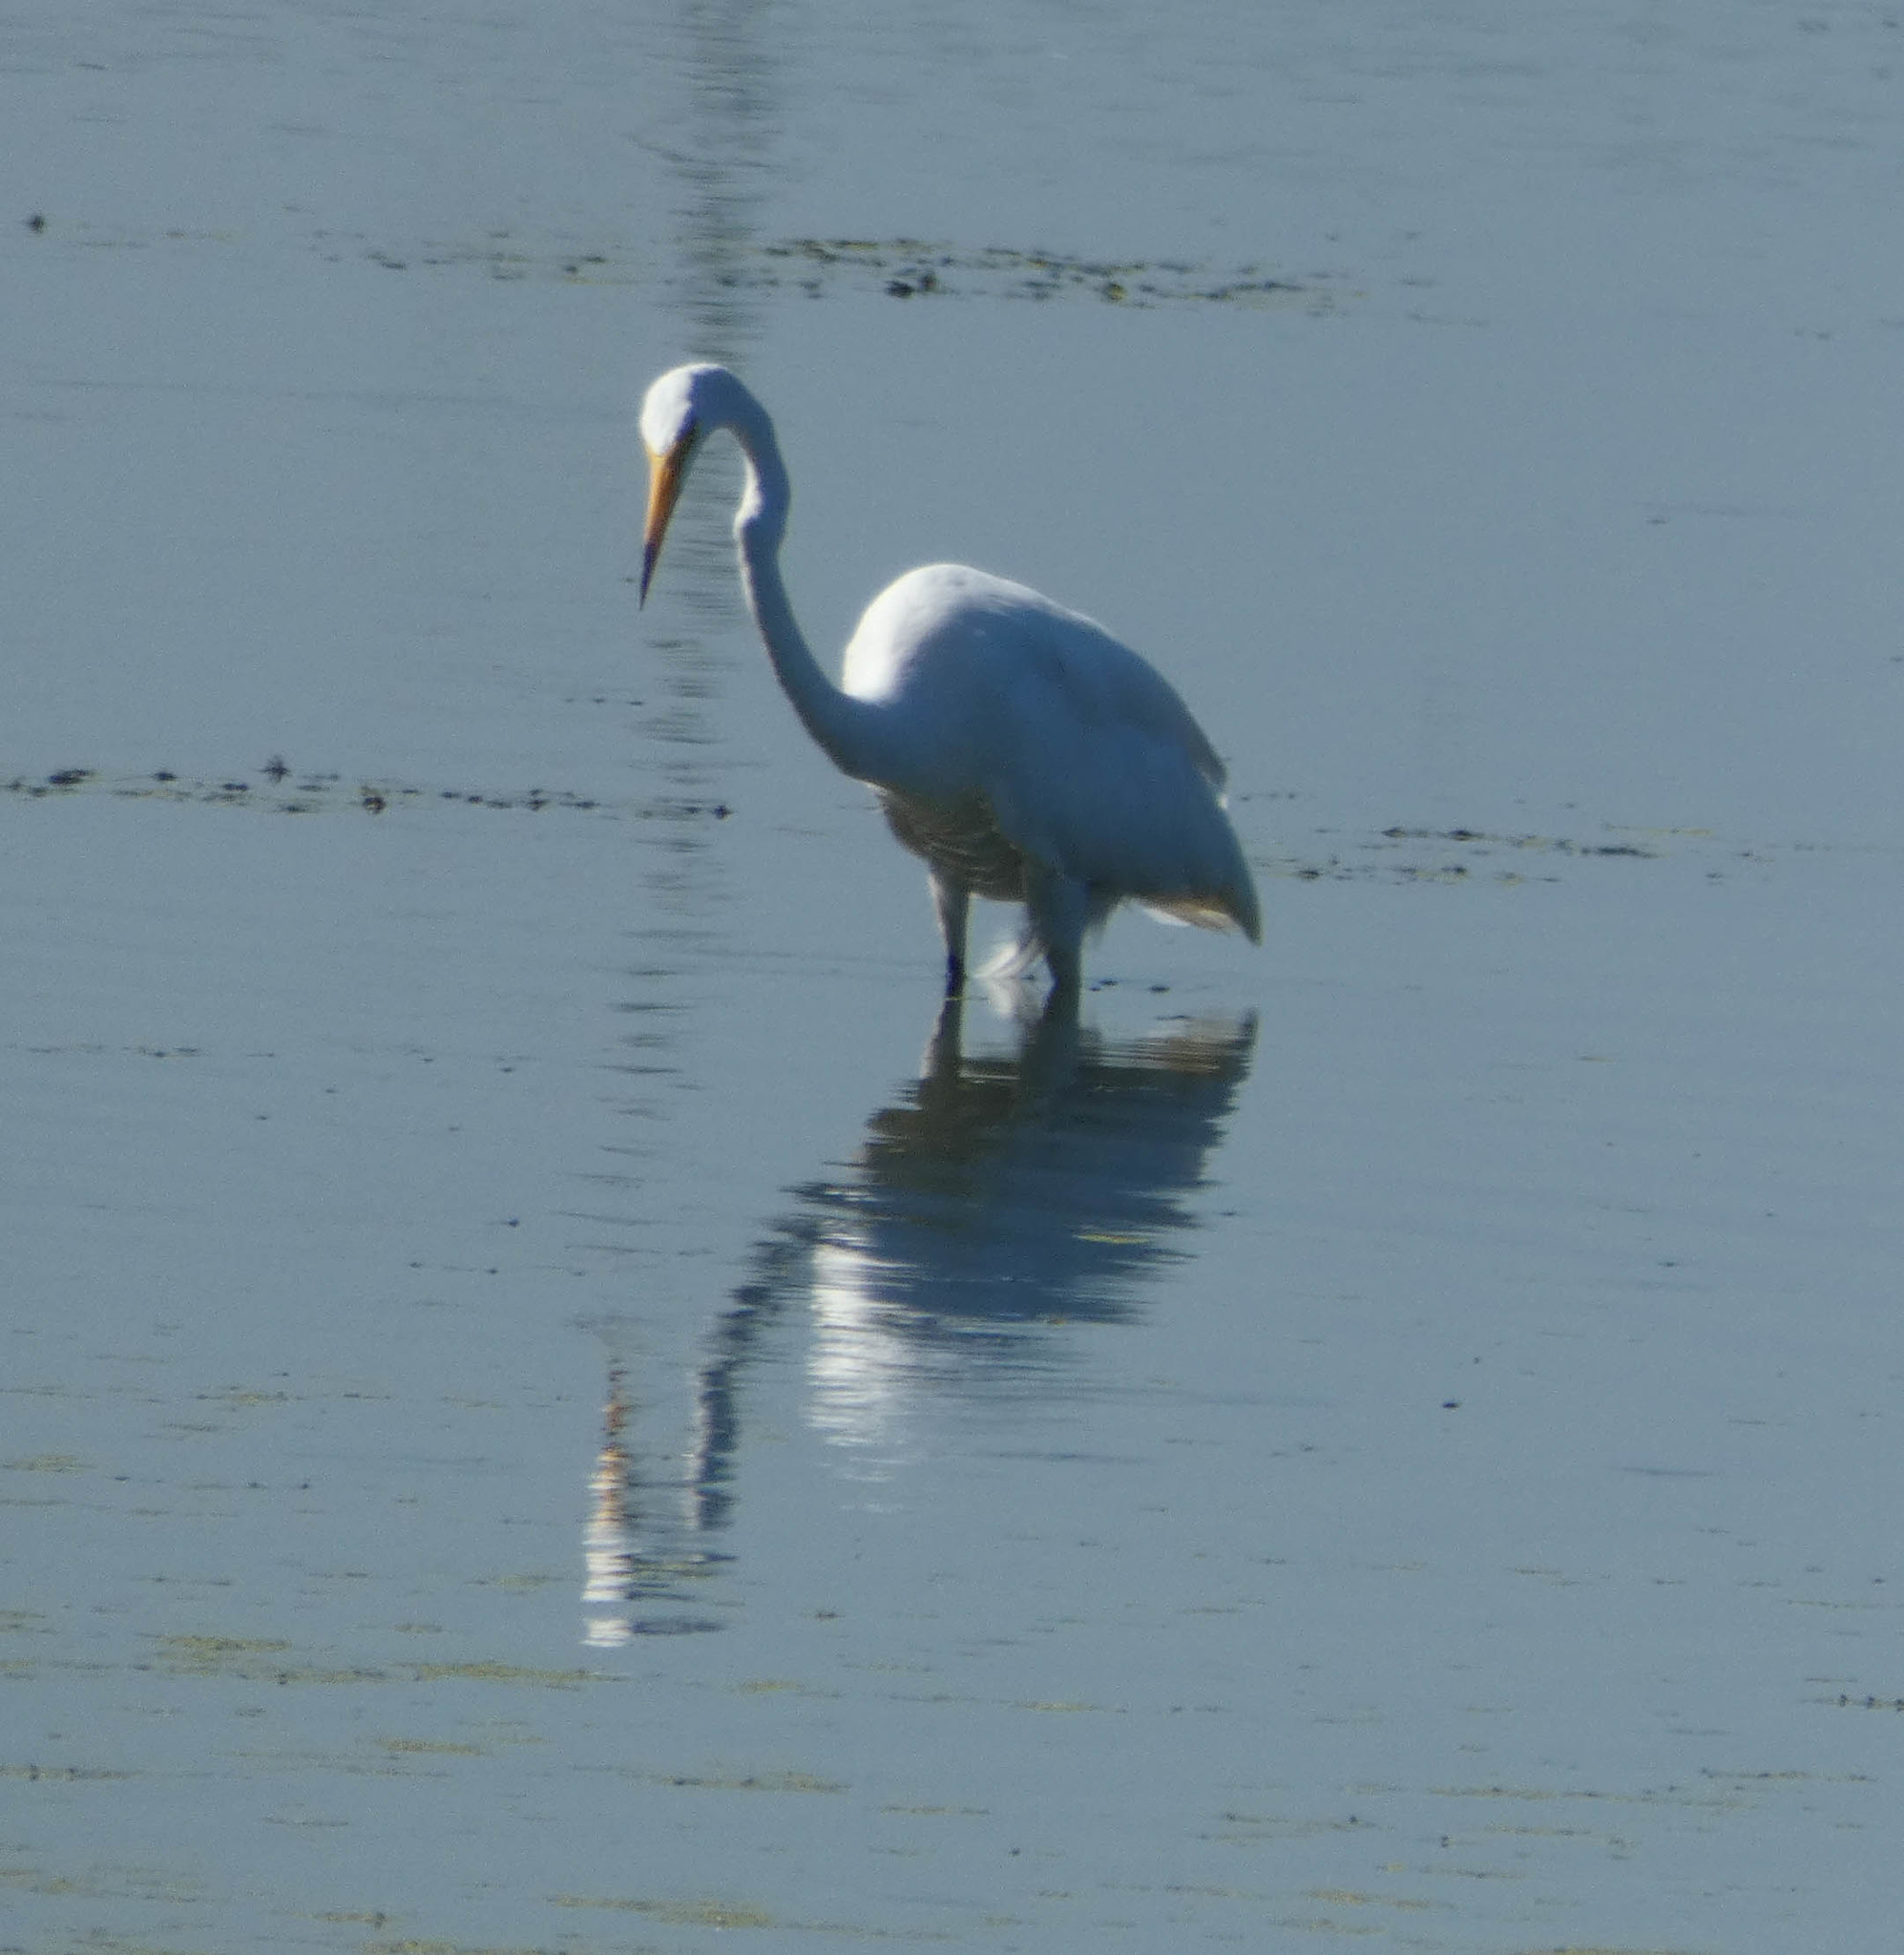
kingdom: Animalia
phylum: Chordata
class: Aves
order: Pelecaniformes
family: Ardeidae
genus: Ardea
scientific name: Ardea alba
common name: Great egret
